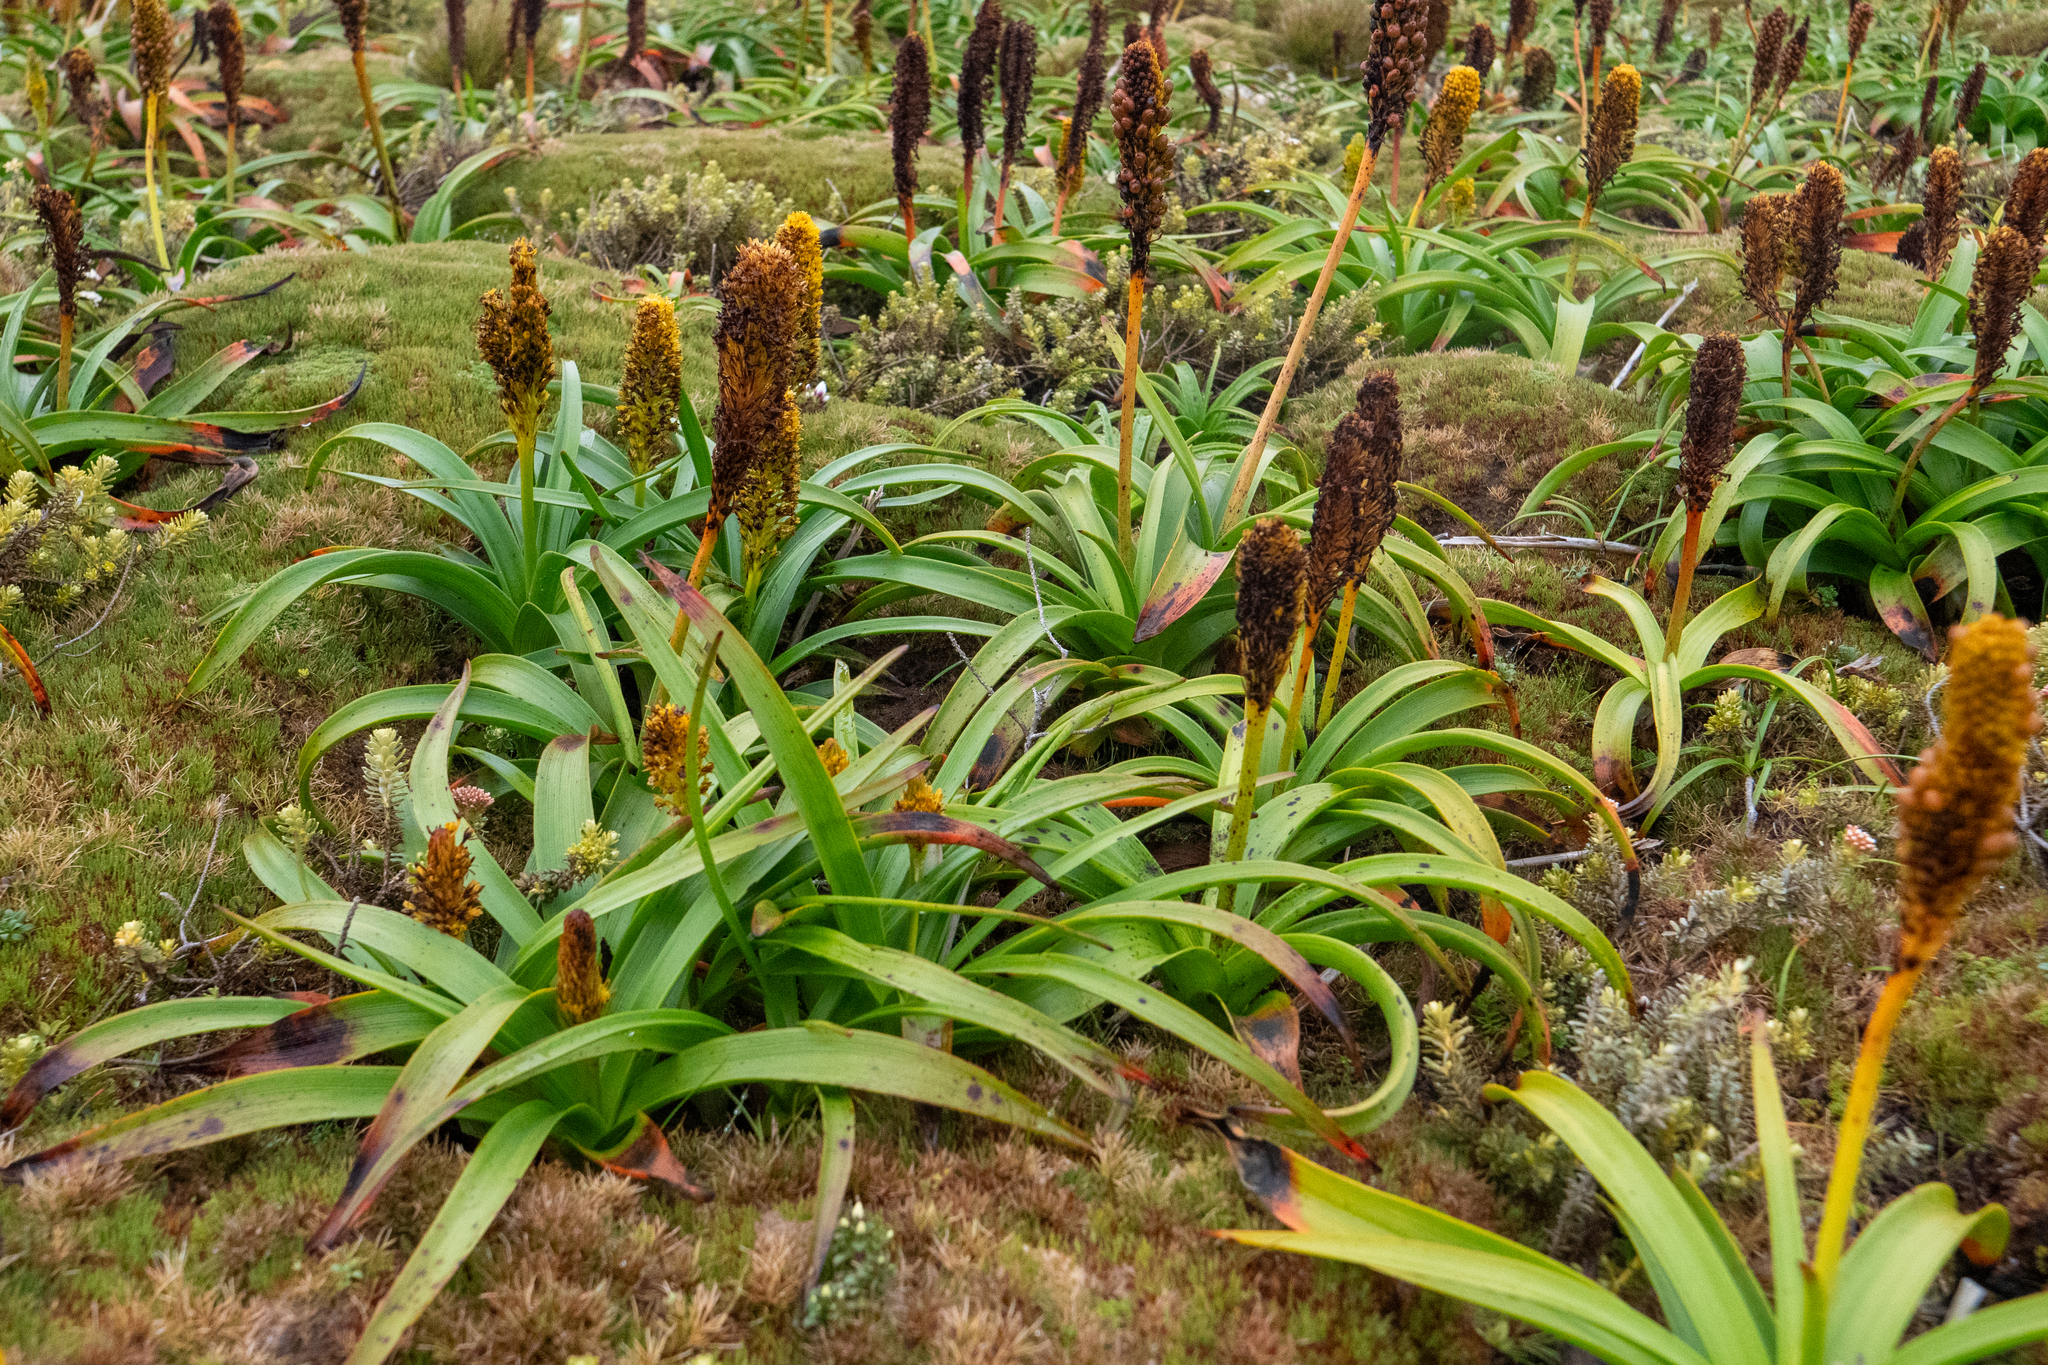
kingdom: Plantae
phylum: Tracheophyta
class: Liliopsida
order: Asparagales
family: Asphodelaceae
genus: Bulbinella
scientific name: Bulbinella rossii
